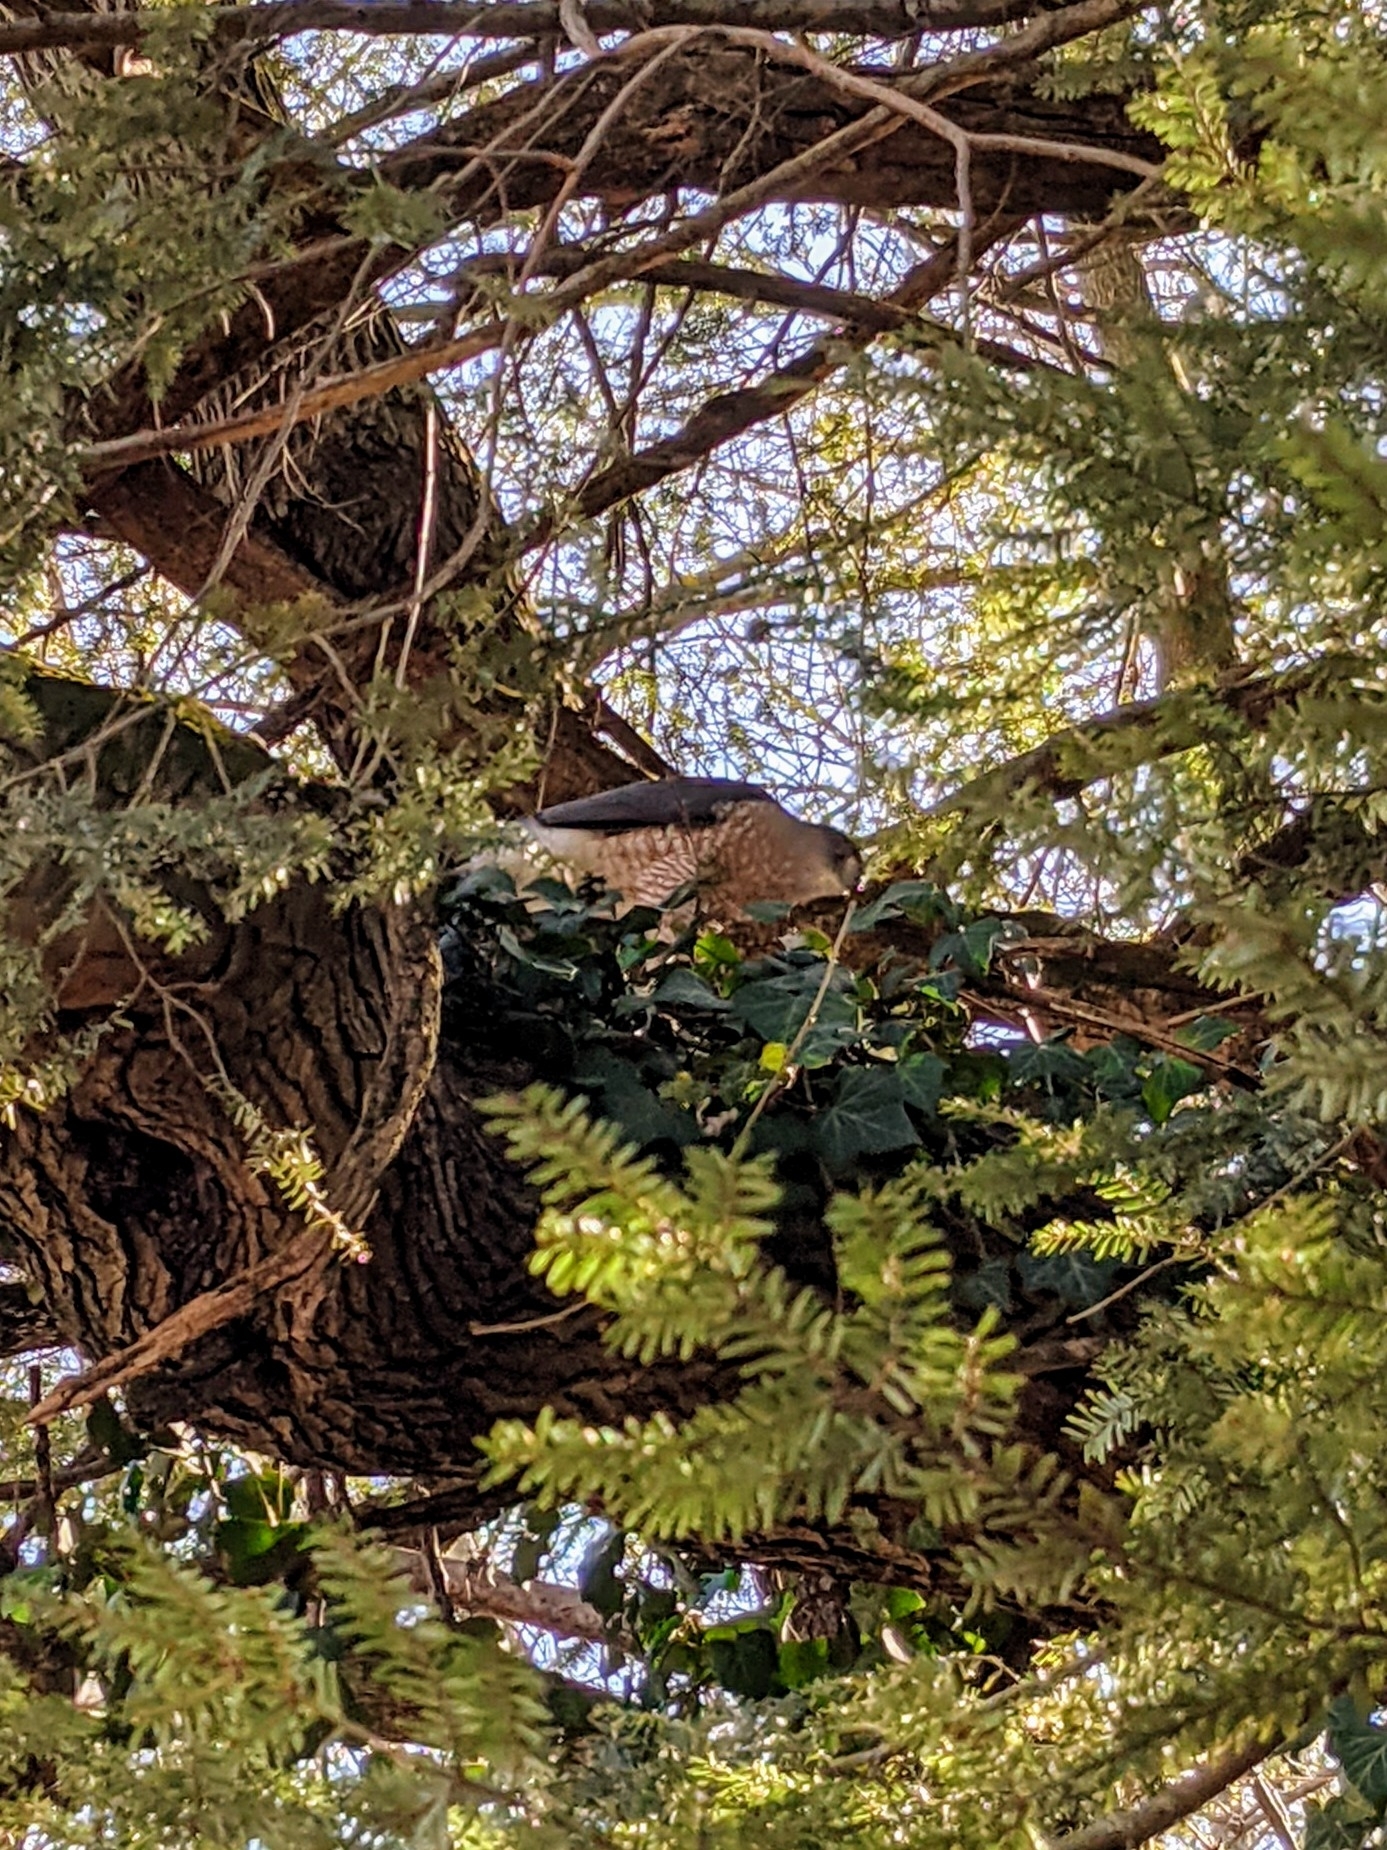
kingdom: Animalia
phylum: Chordata
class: Aves
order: Accipitriformes
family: Accipitridae
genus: Accipiter
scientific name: Accipiter cooperii
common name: Cooper's hawk
